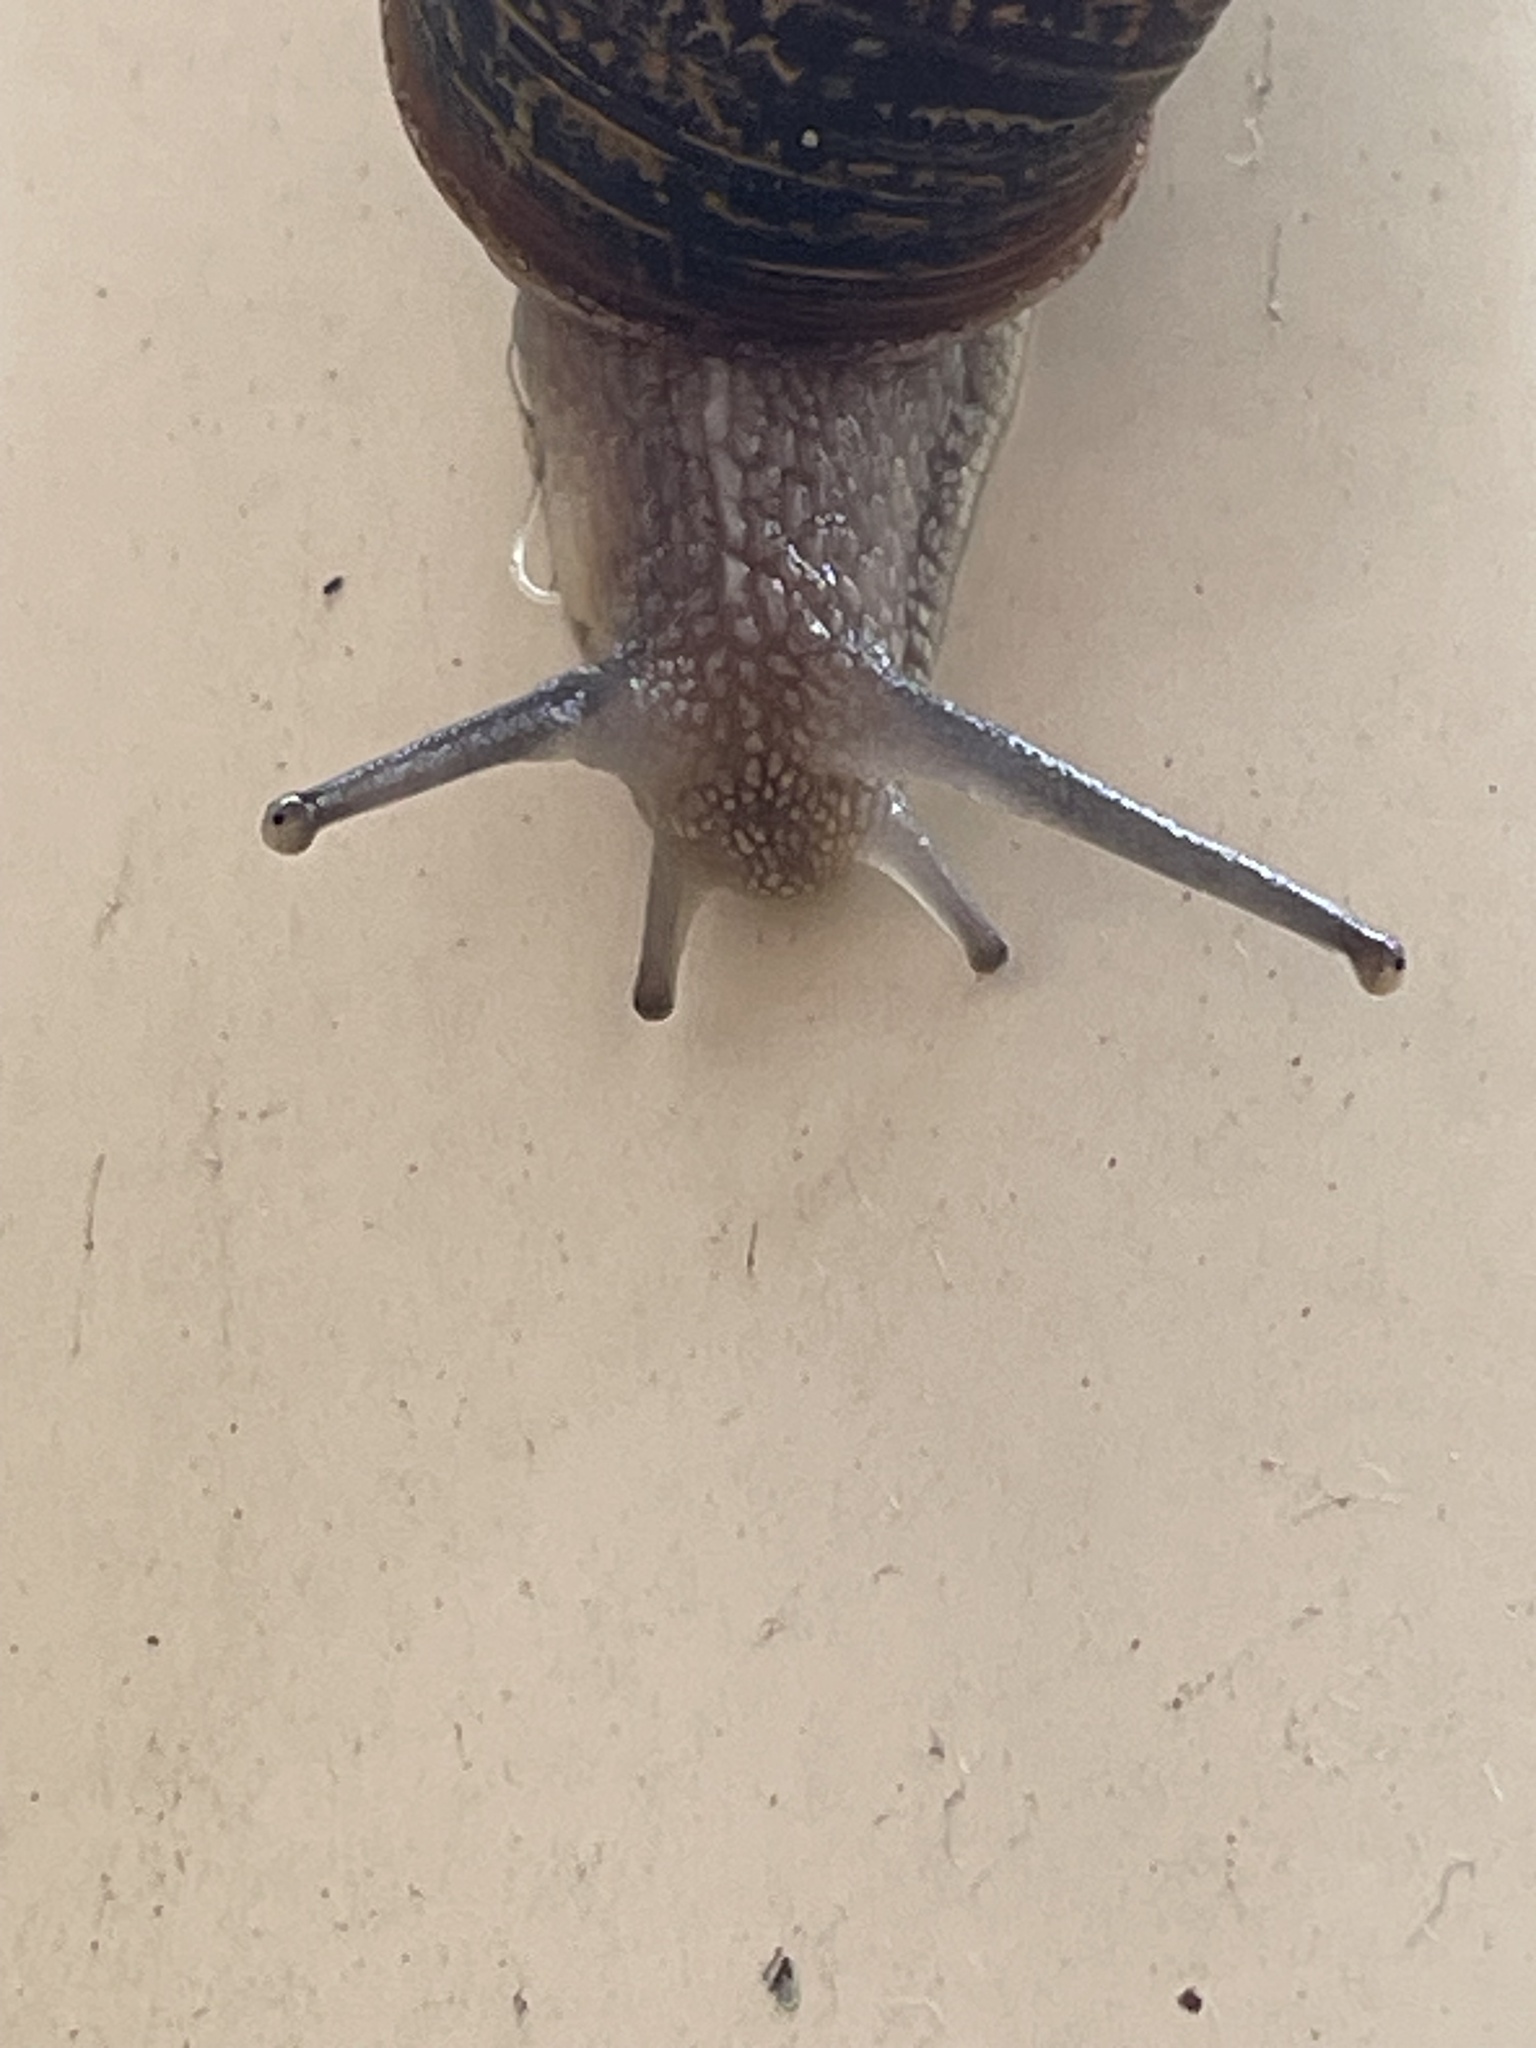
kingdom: Animalia
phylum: Mollusca
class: Gastropoda
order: Stylommatophora
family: Helicidae
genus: Cornu
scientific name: Cornu aspersum
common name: Brown garden snail
